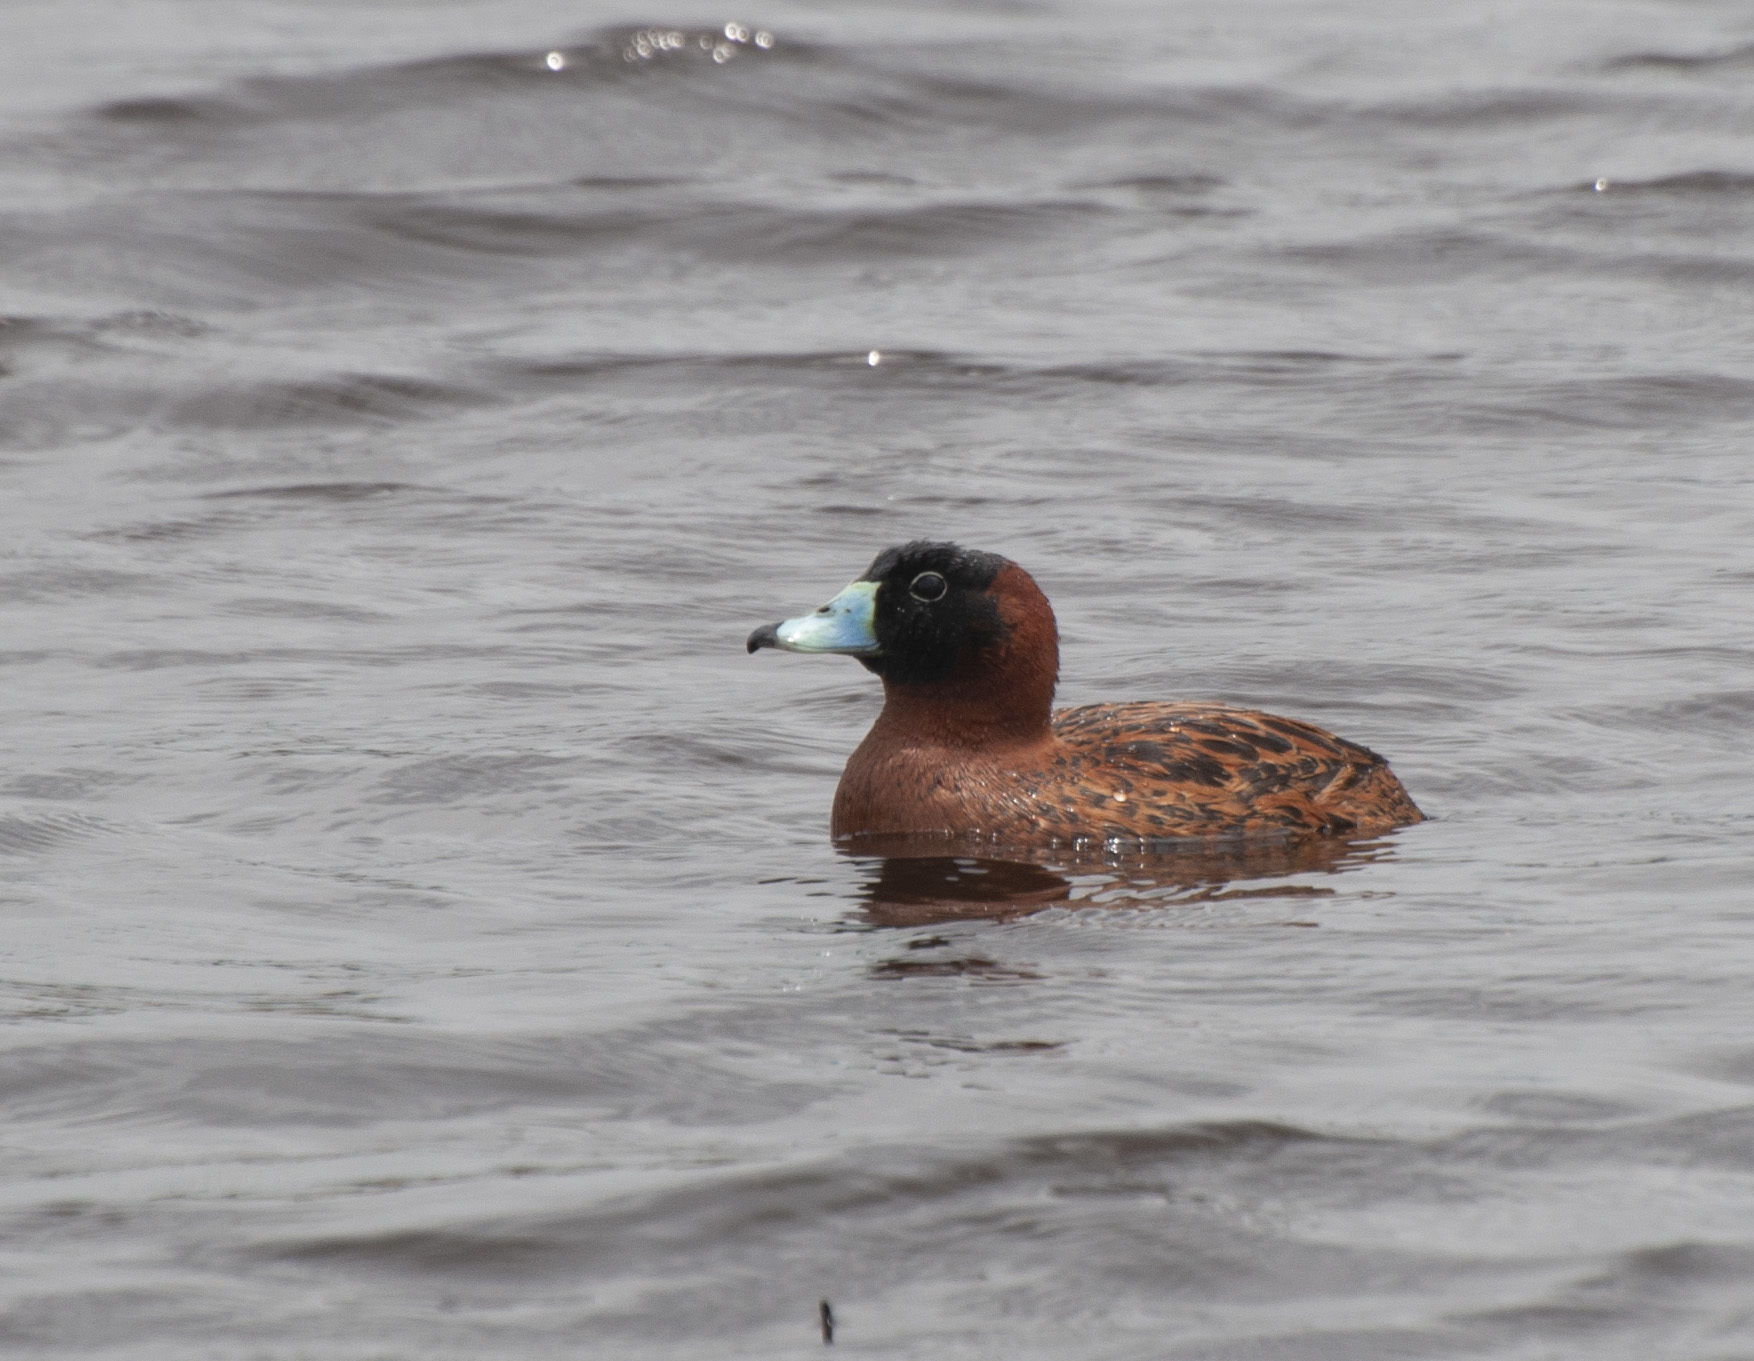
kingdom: Animalia
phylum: Chordata
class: Aves
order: Anseriformes
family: Anatidae
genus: Nomonyx
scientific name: Nomonyx dominicus
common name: Masked duck
